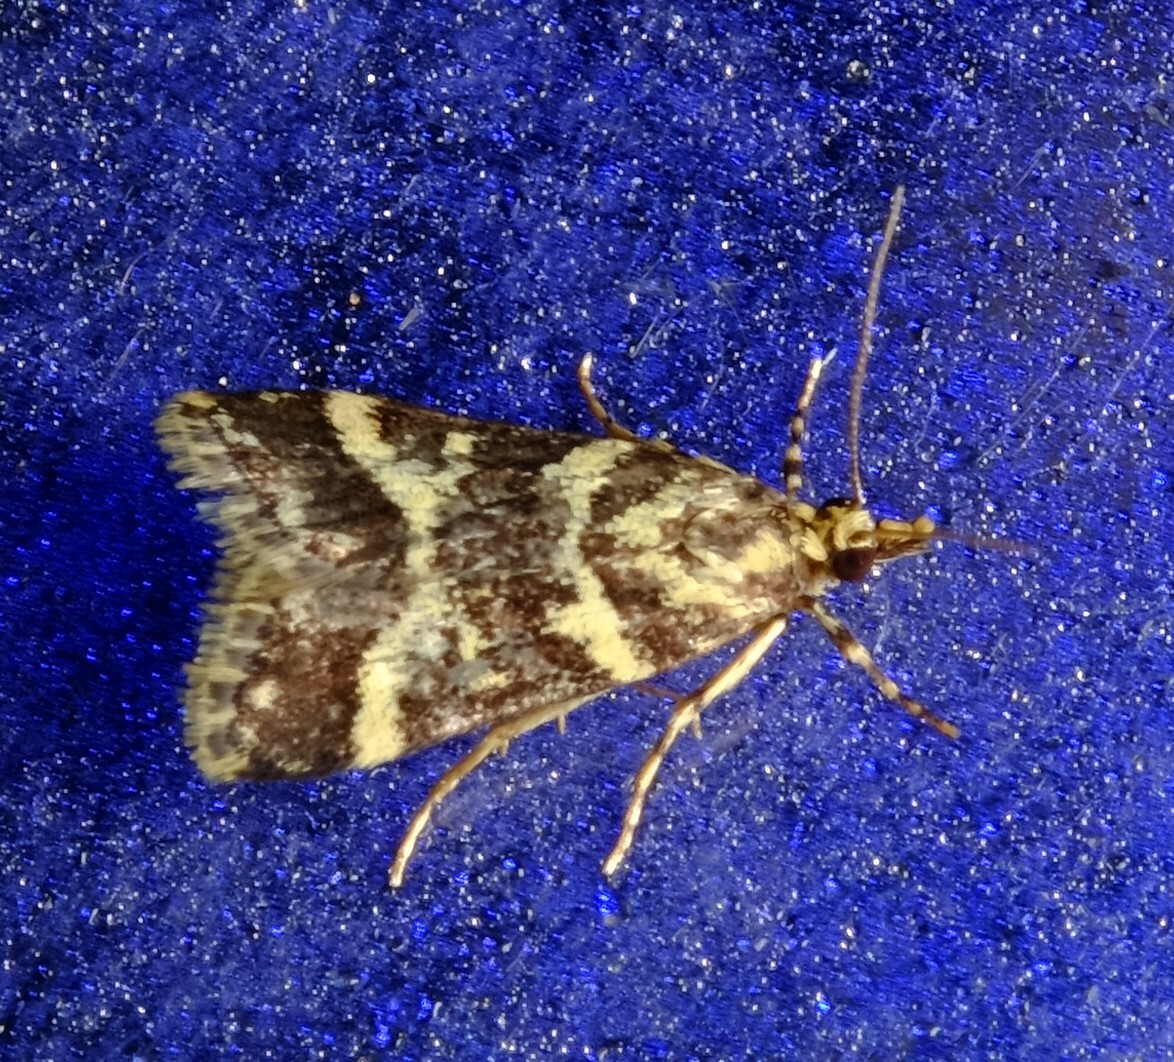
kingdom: Animalia
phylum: Arthropoda
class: Insecta
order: Lepidoptera
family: Crambidae
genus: Scoparia
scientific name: Scoparia spelaea
